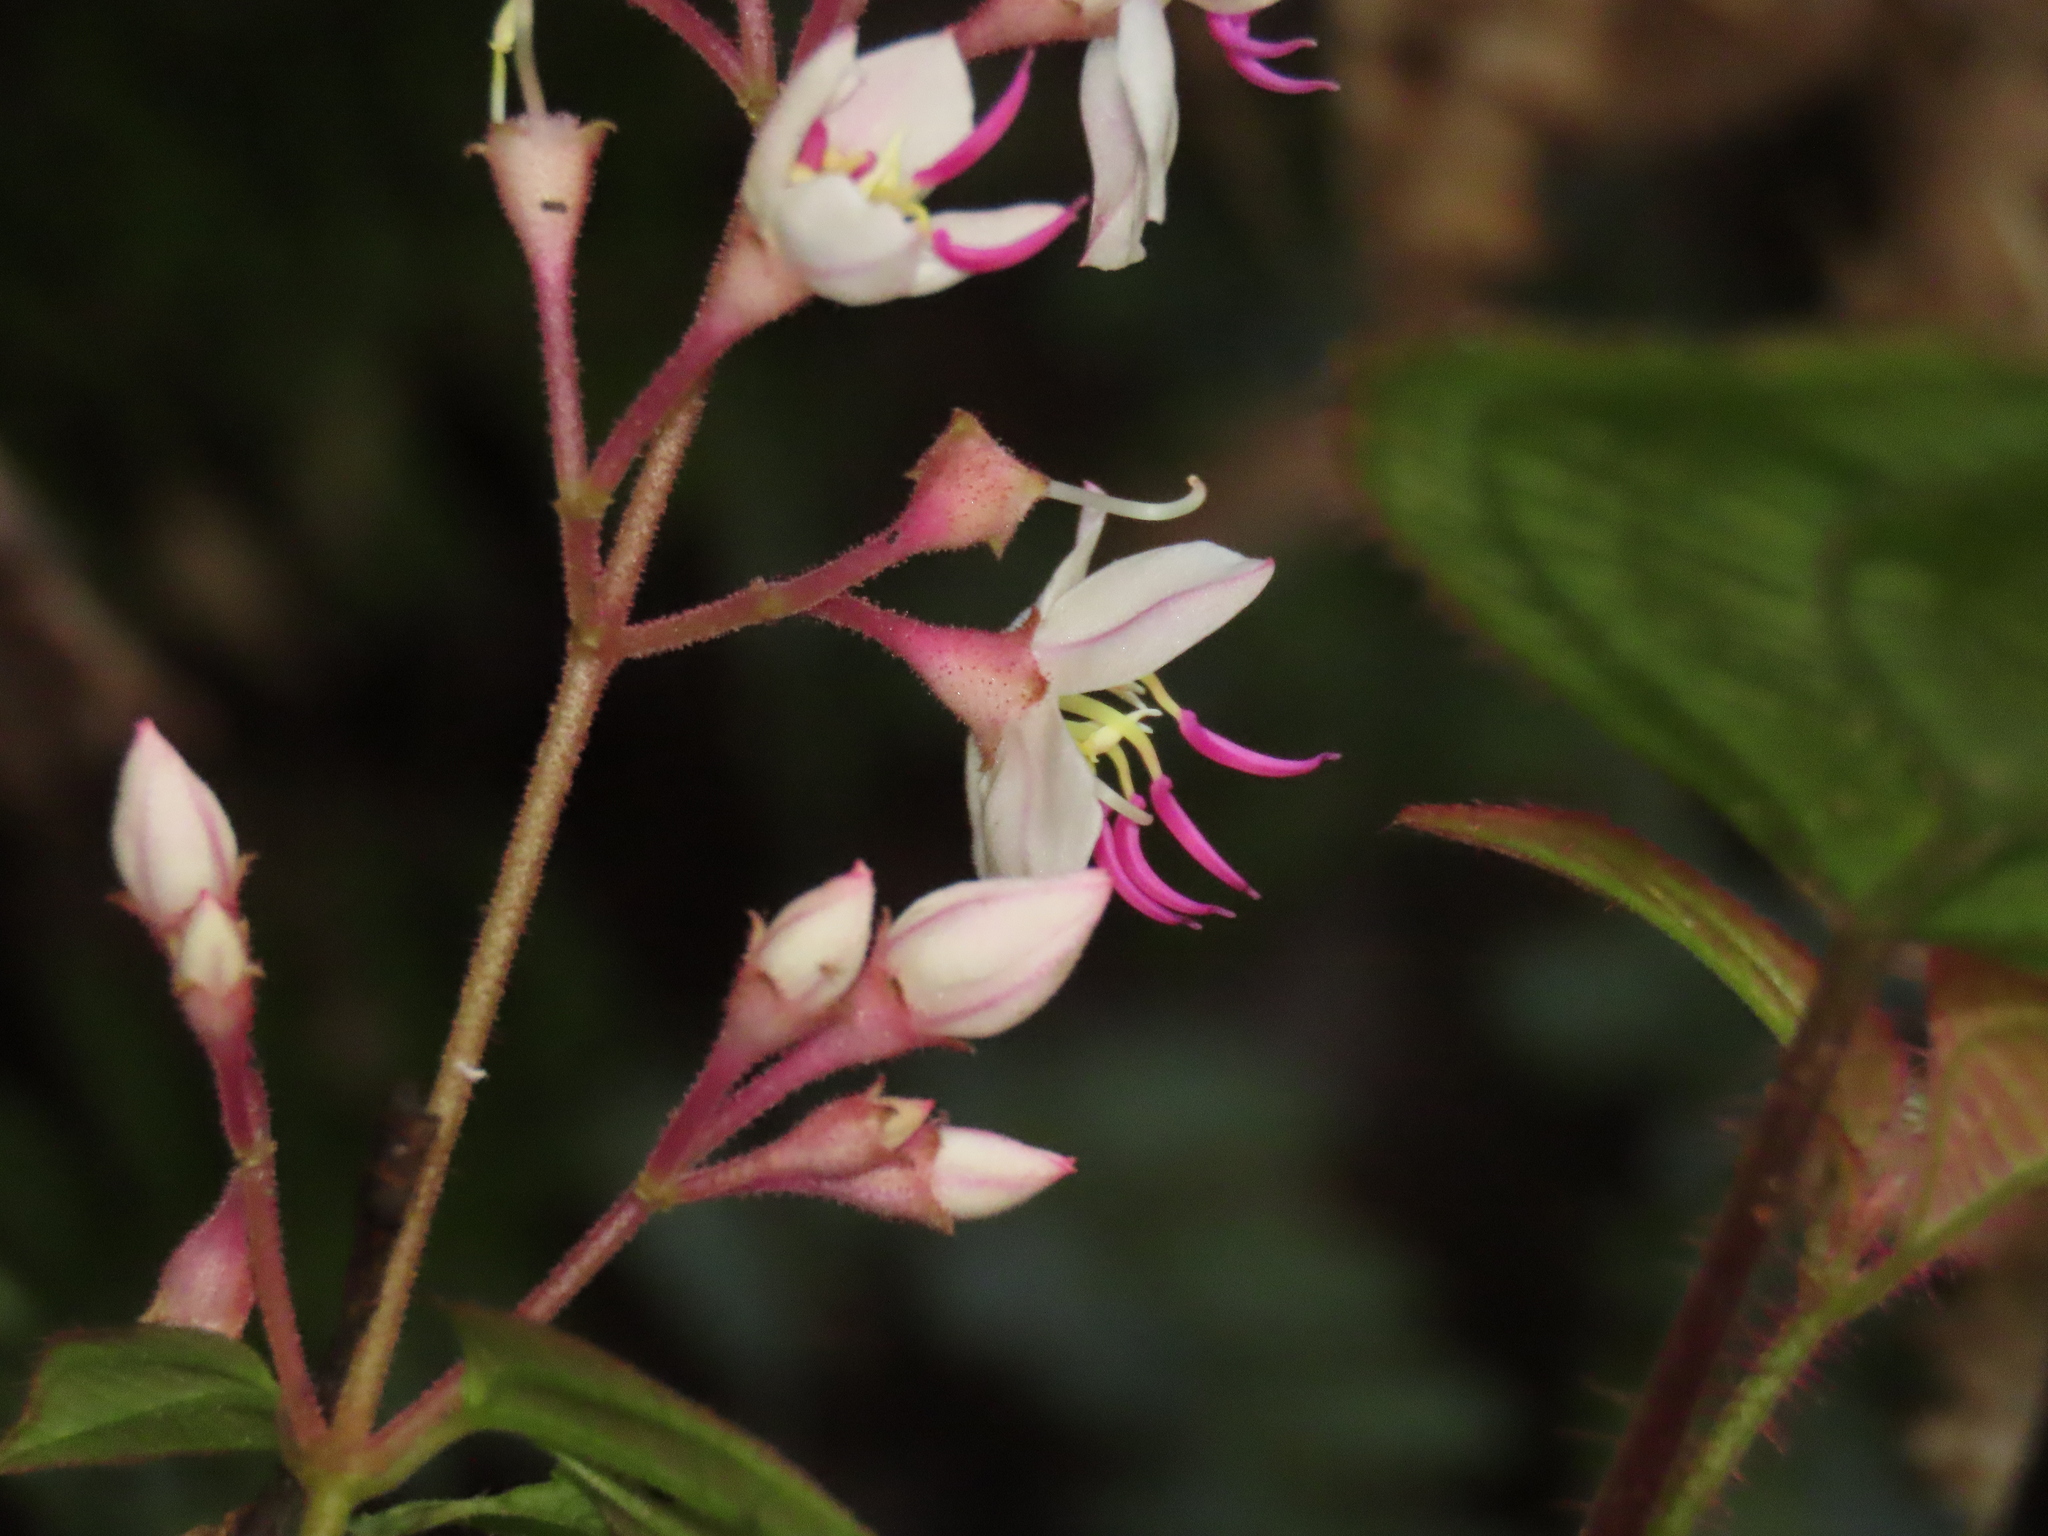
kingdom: Plantae
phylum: Tracheophyta
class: Magnoliopsida
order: Myrtales
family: Melastomataceae
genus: Bredia
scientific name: Bredia hirsuta
